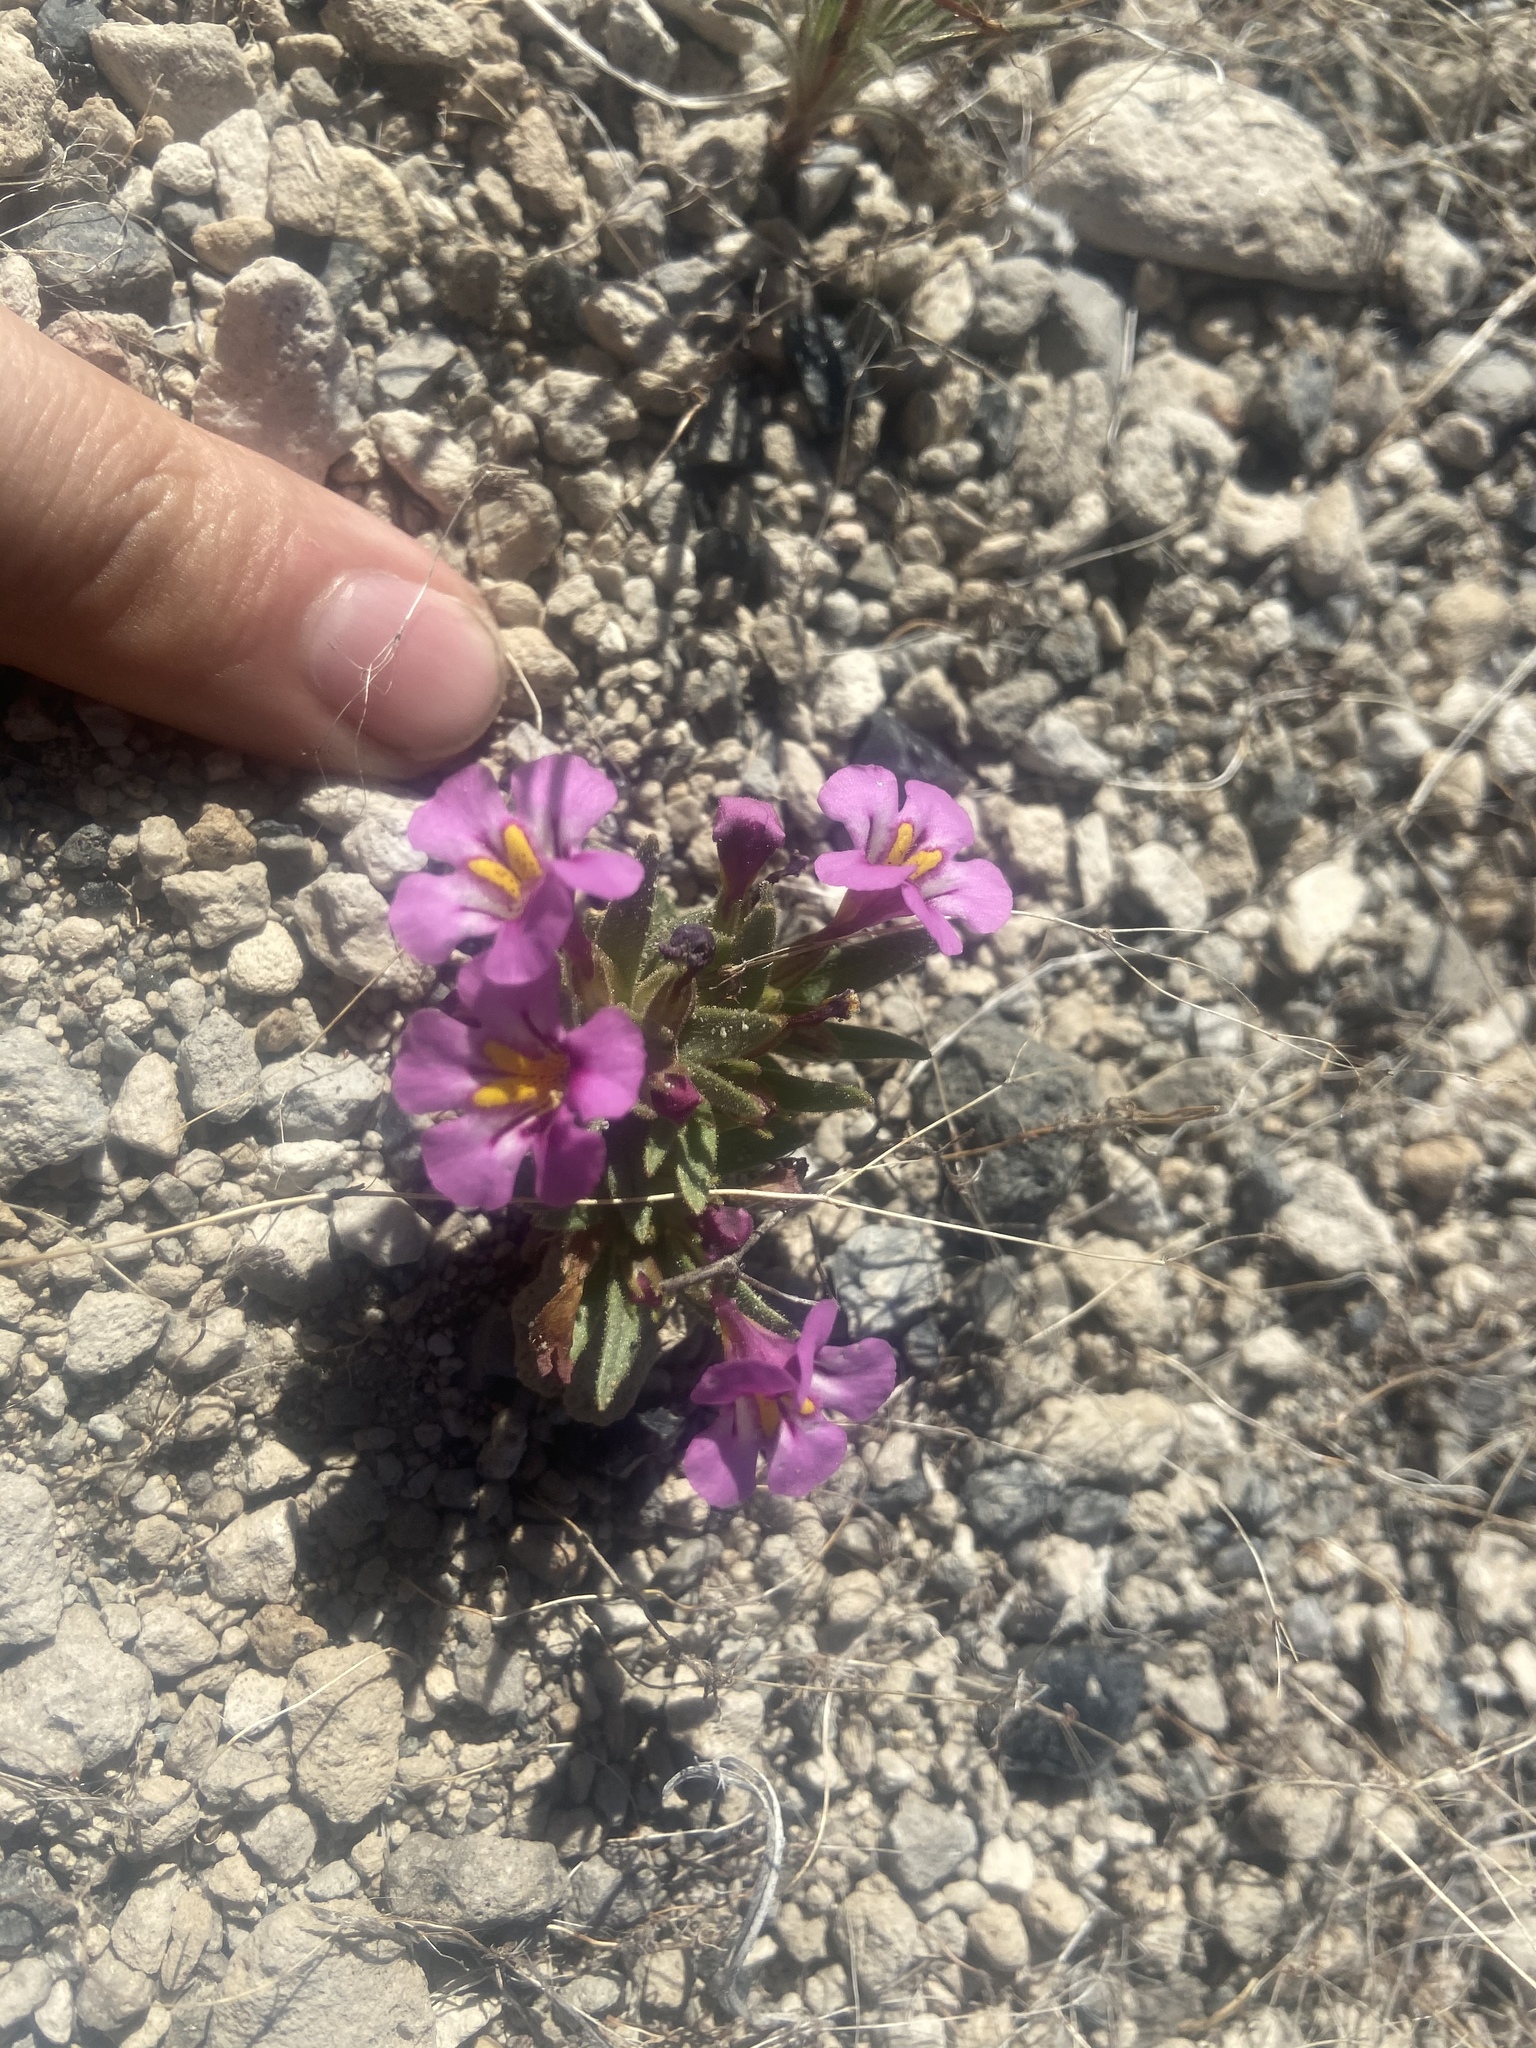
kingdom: Plantae
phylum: Tracheophyta
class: Magnoliopsida
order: Lamiales
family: Phrymaceae
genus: Diplacus
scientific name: Diplacus nanus
